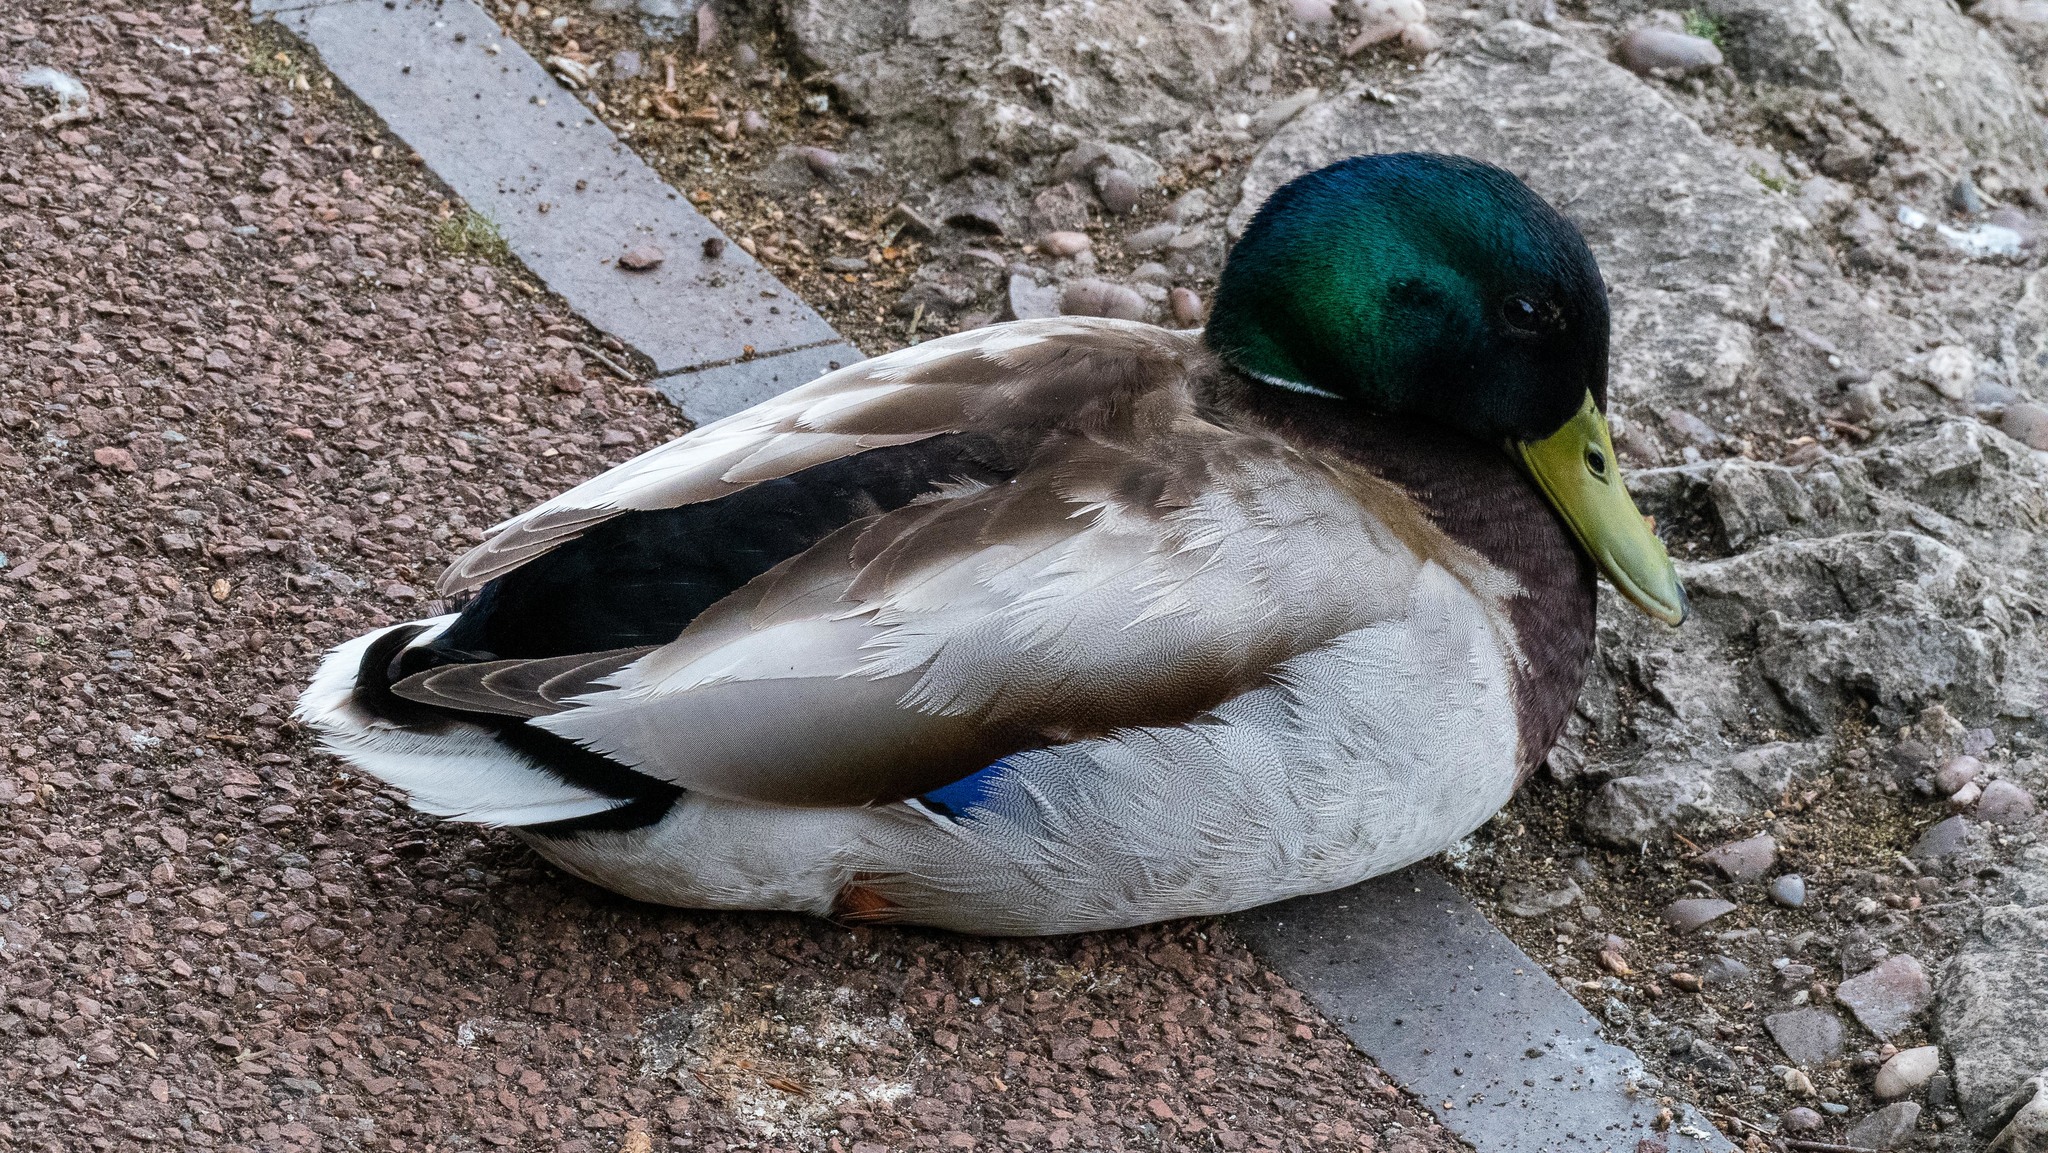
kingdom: Animalia
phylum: Chordata
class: Aves
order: Anseriformes
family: Anatidae
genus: Anas
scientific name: Anas platyrhynchos
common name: Mallard
